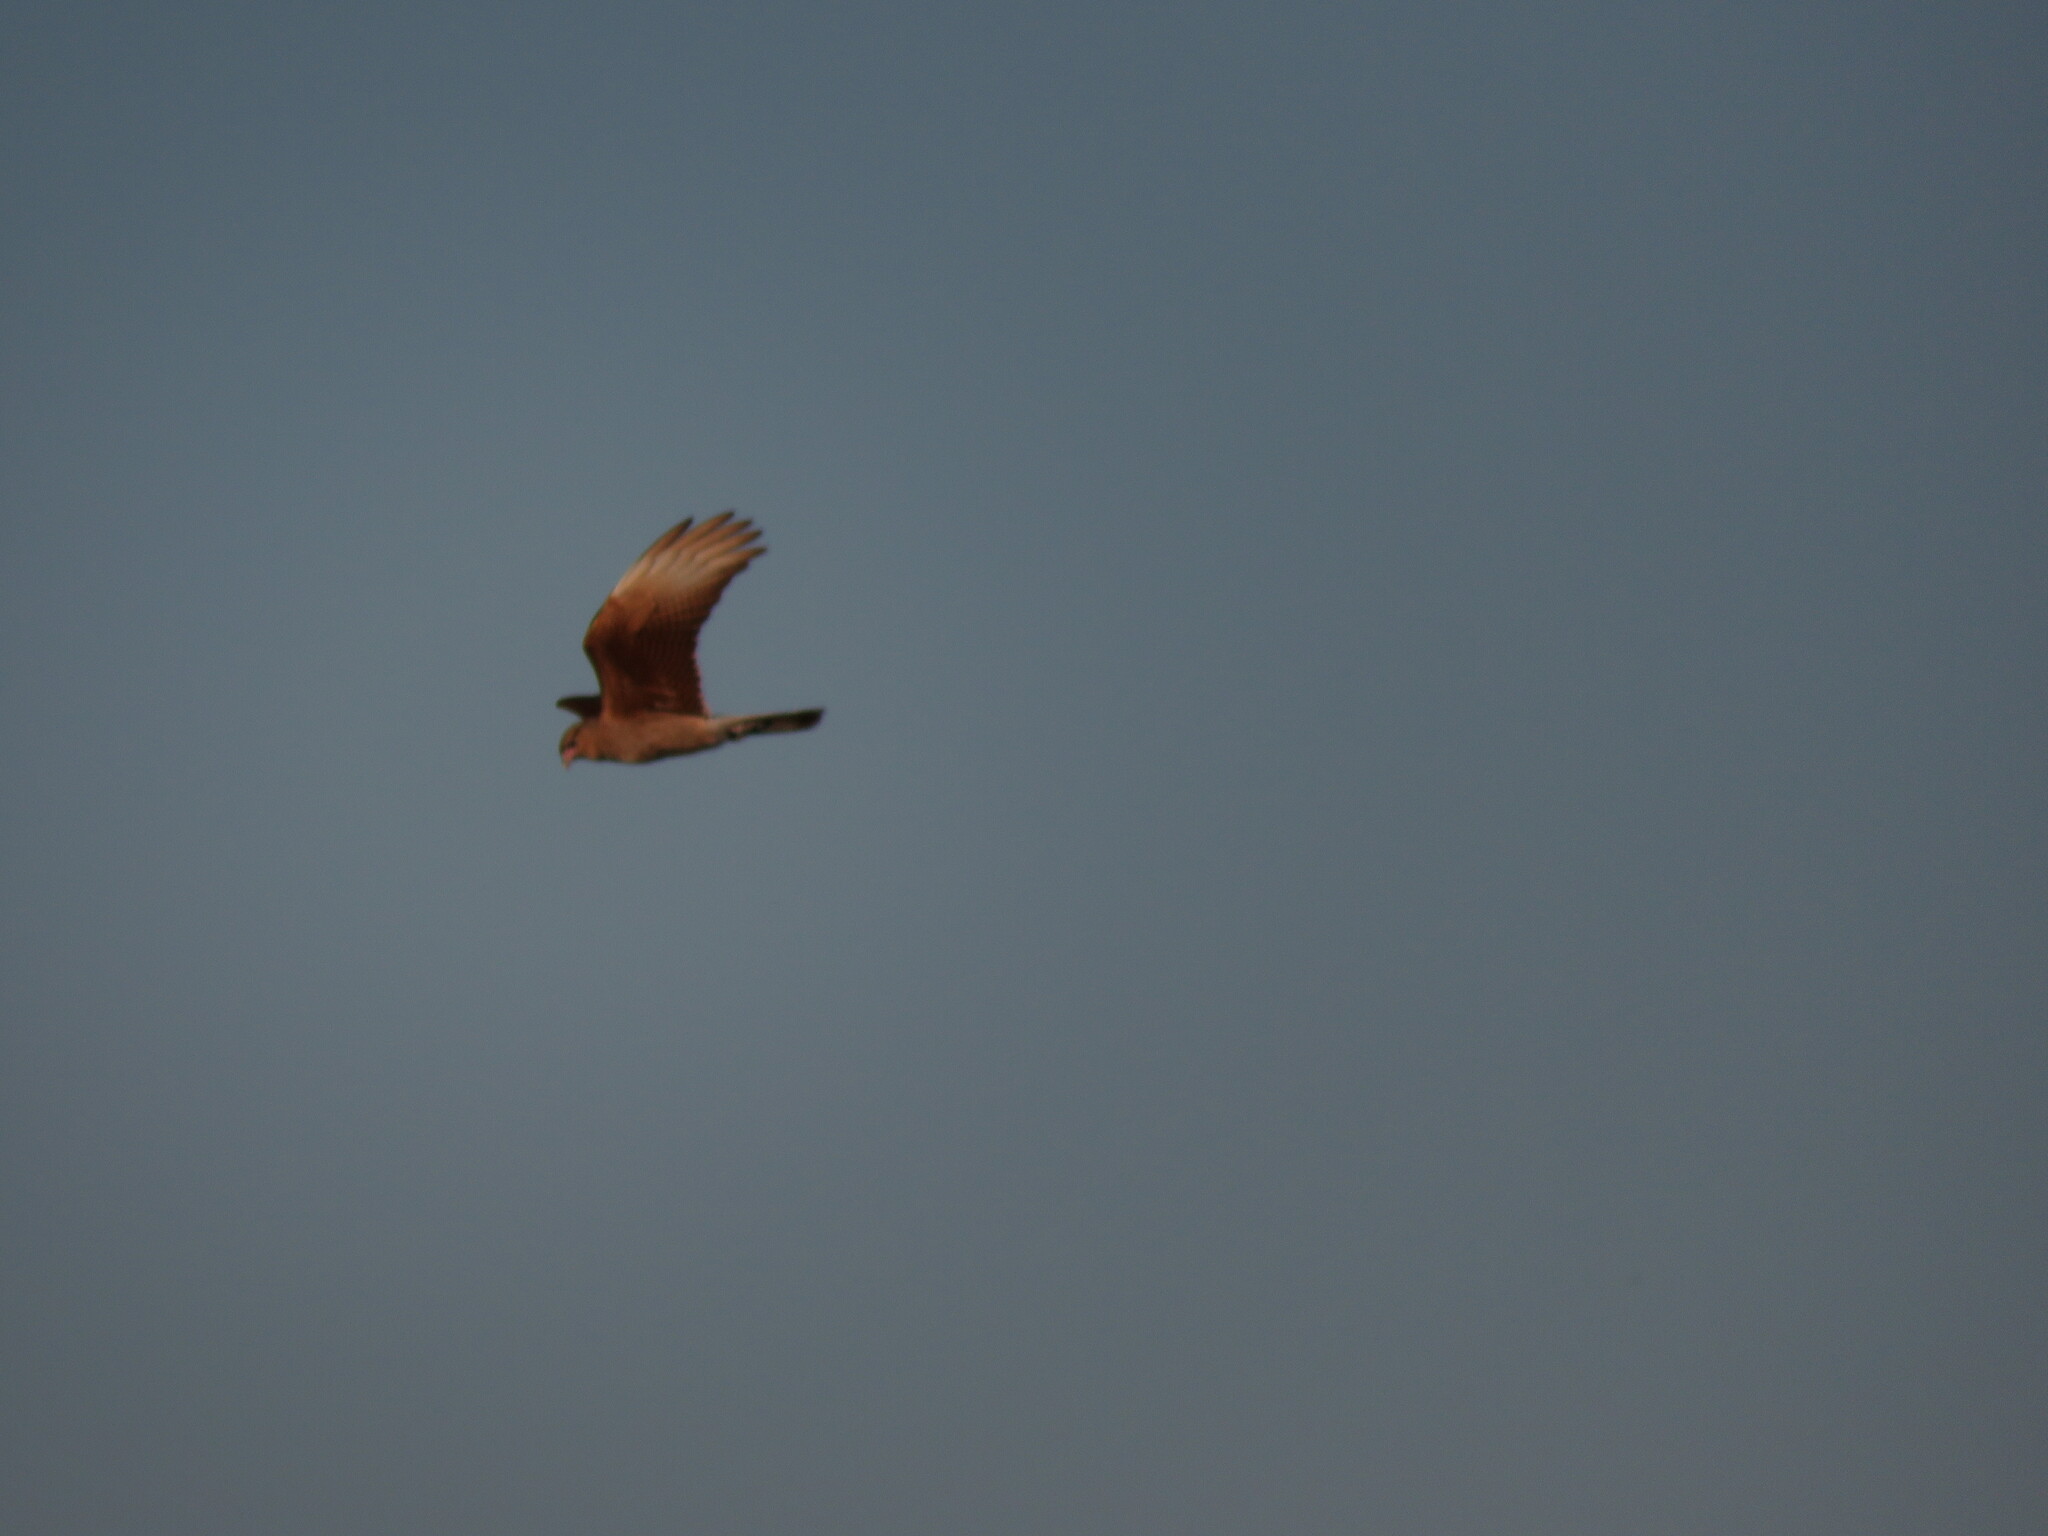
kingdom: Animalia
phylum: Chordata
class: Aves
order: Falconiformes
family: Falconidae
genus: Daptrius
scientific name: Daptrius
